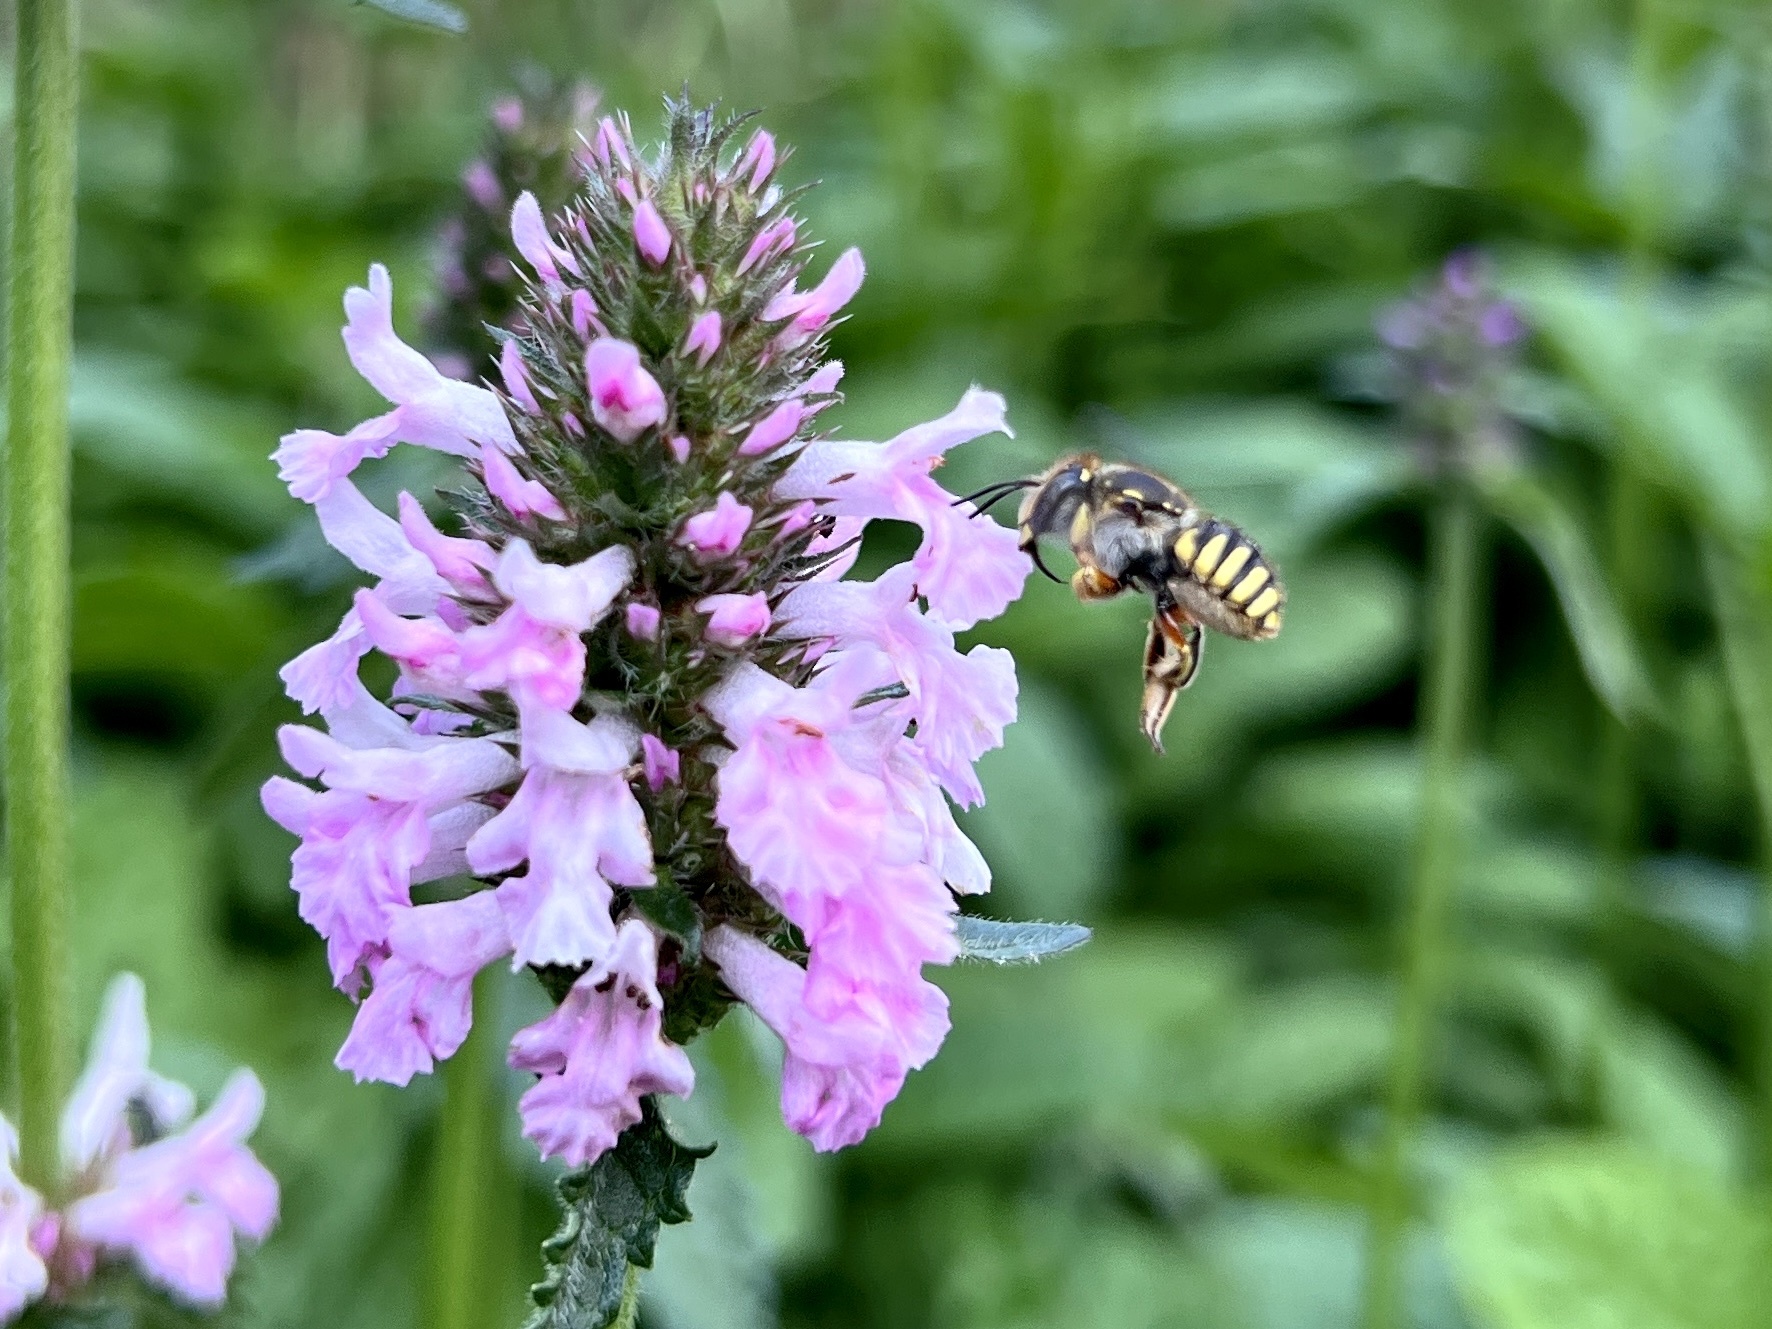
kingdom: Animalia
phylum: Arthropoda
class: Insecta
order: Hymenoptera
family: Megachilidae
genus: Anthidium
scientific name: Anthidium manicatum
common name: Wool carder bee
